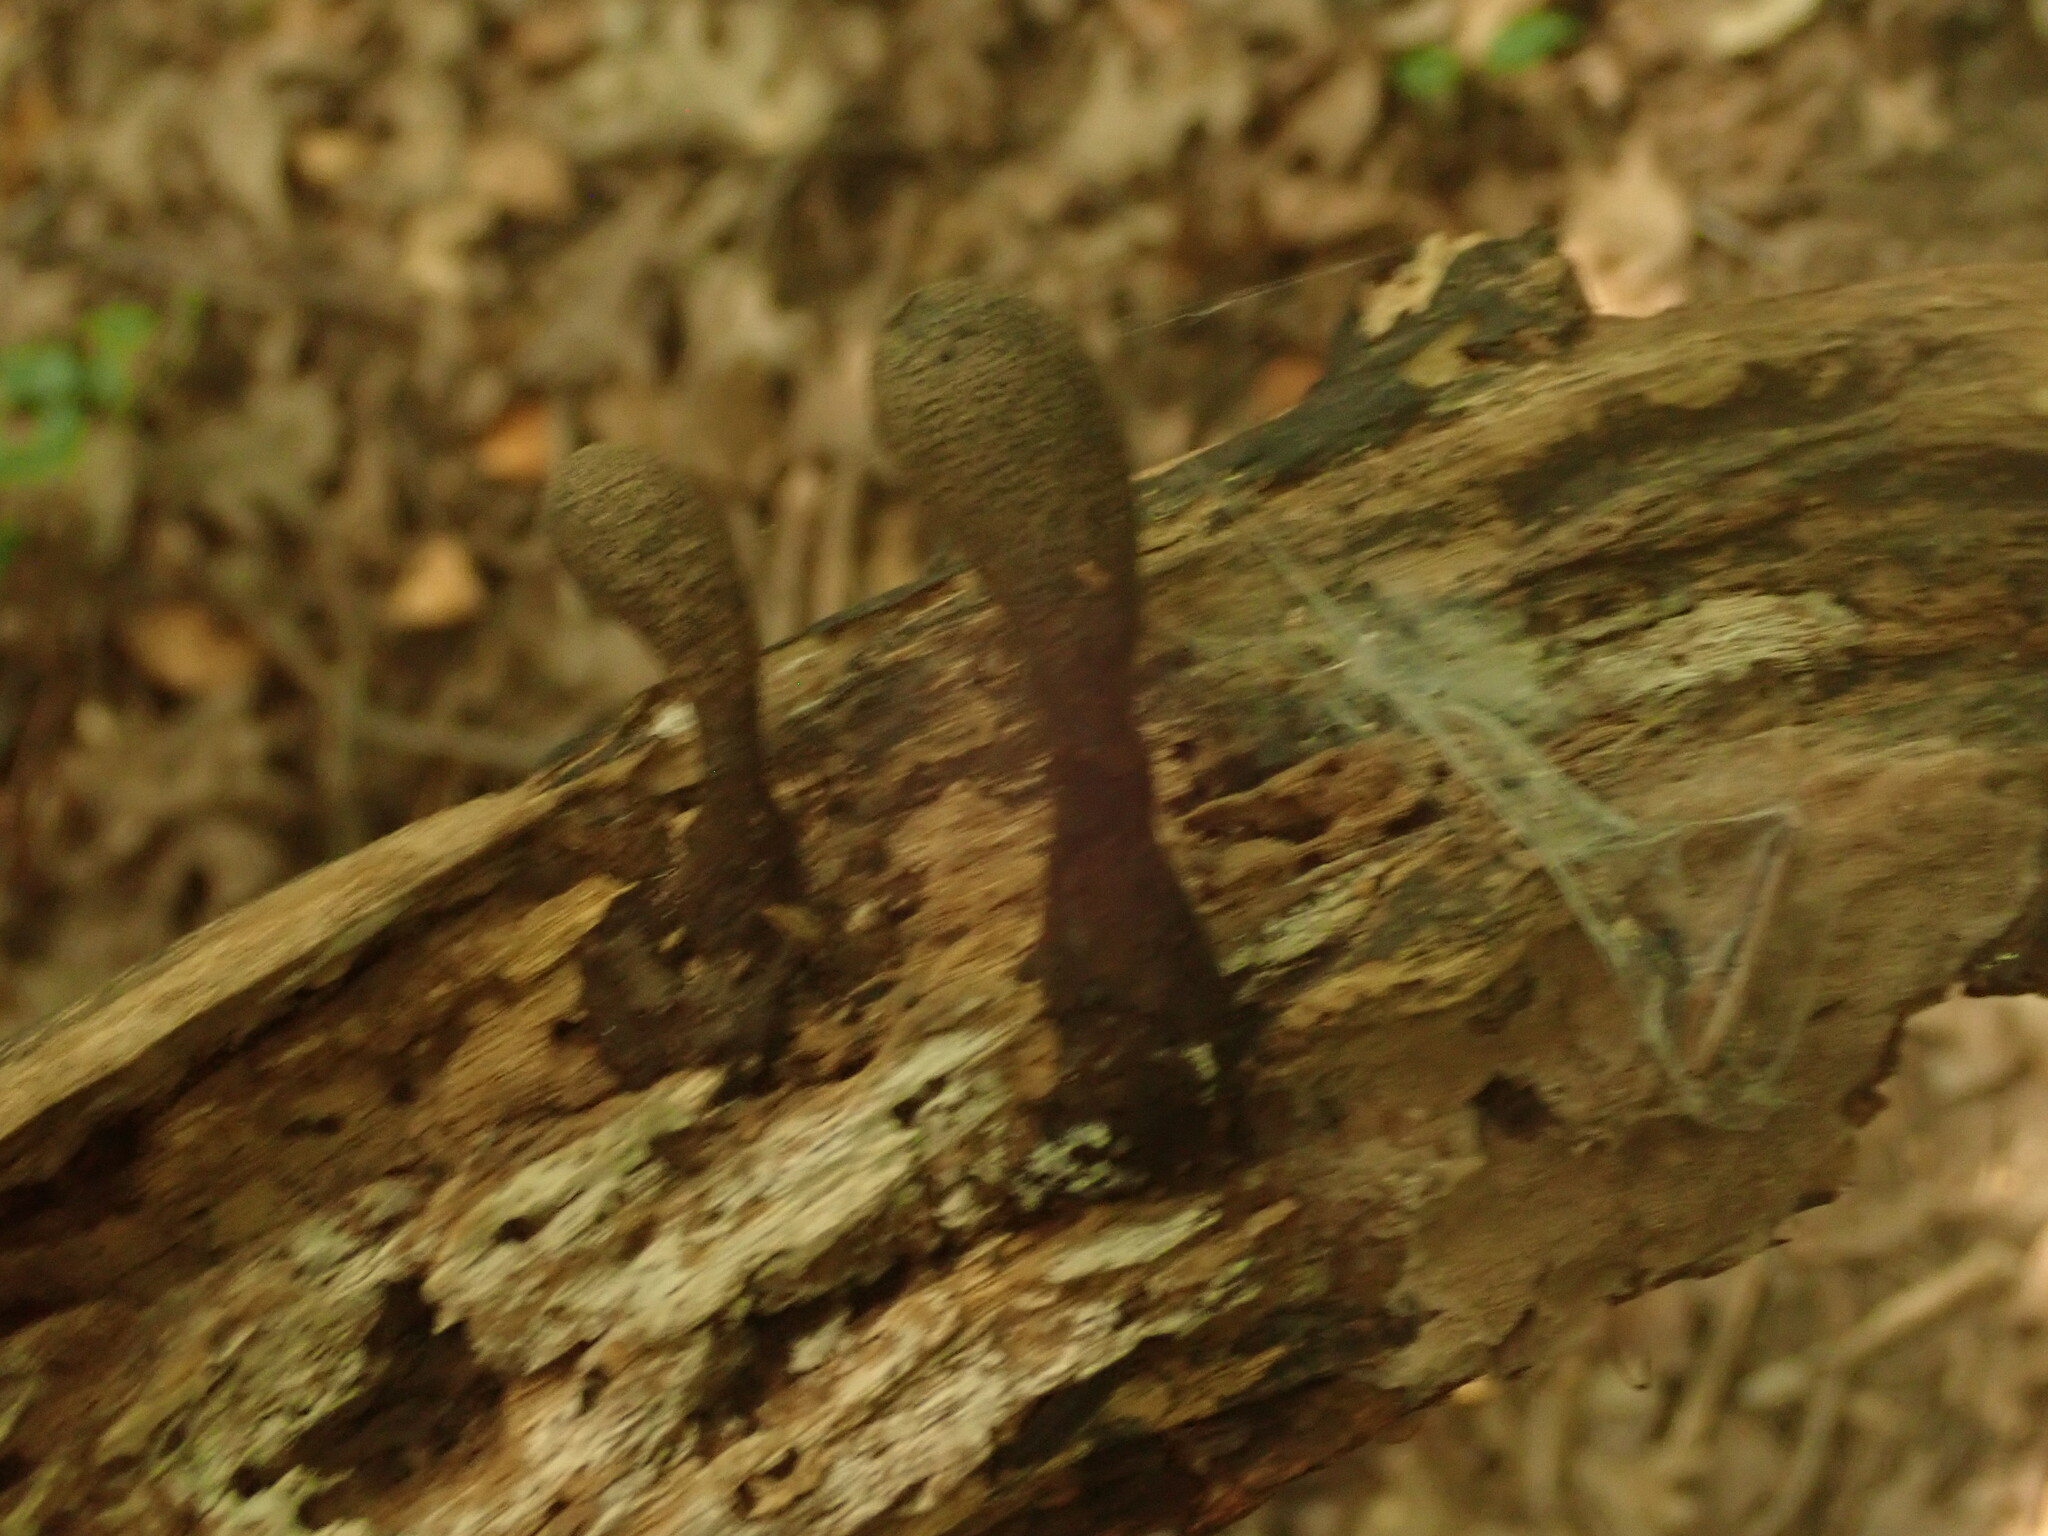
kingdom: Fungi
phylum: Ascomycota
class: Sordariomycetes
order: Xylariales
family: Xylariaceae
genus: Xylaria
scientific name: Xylaria longipes
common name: Dead moll's fingers
